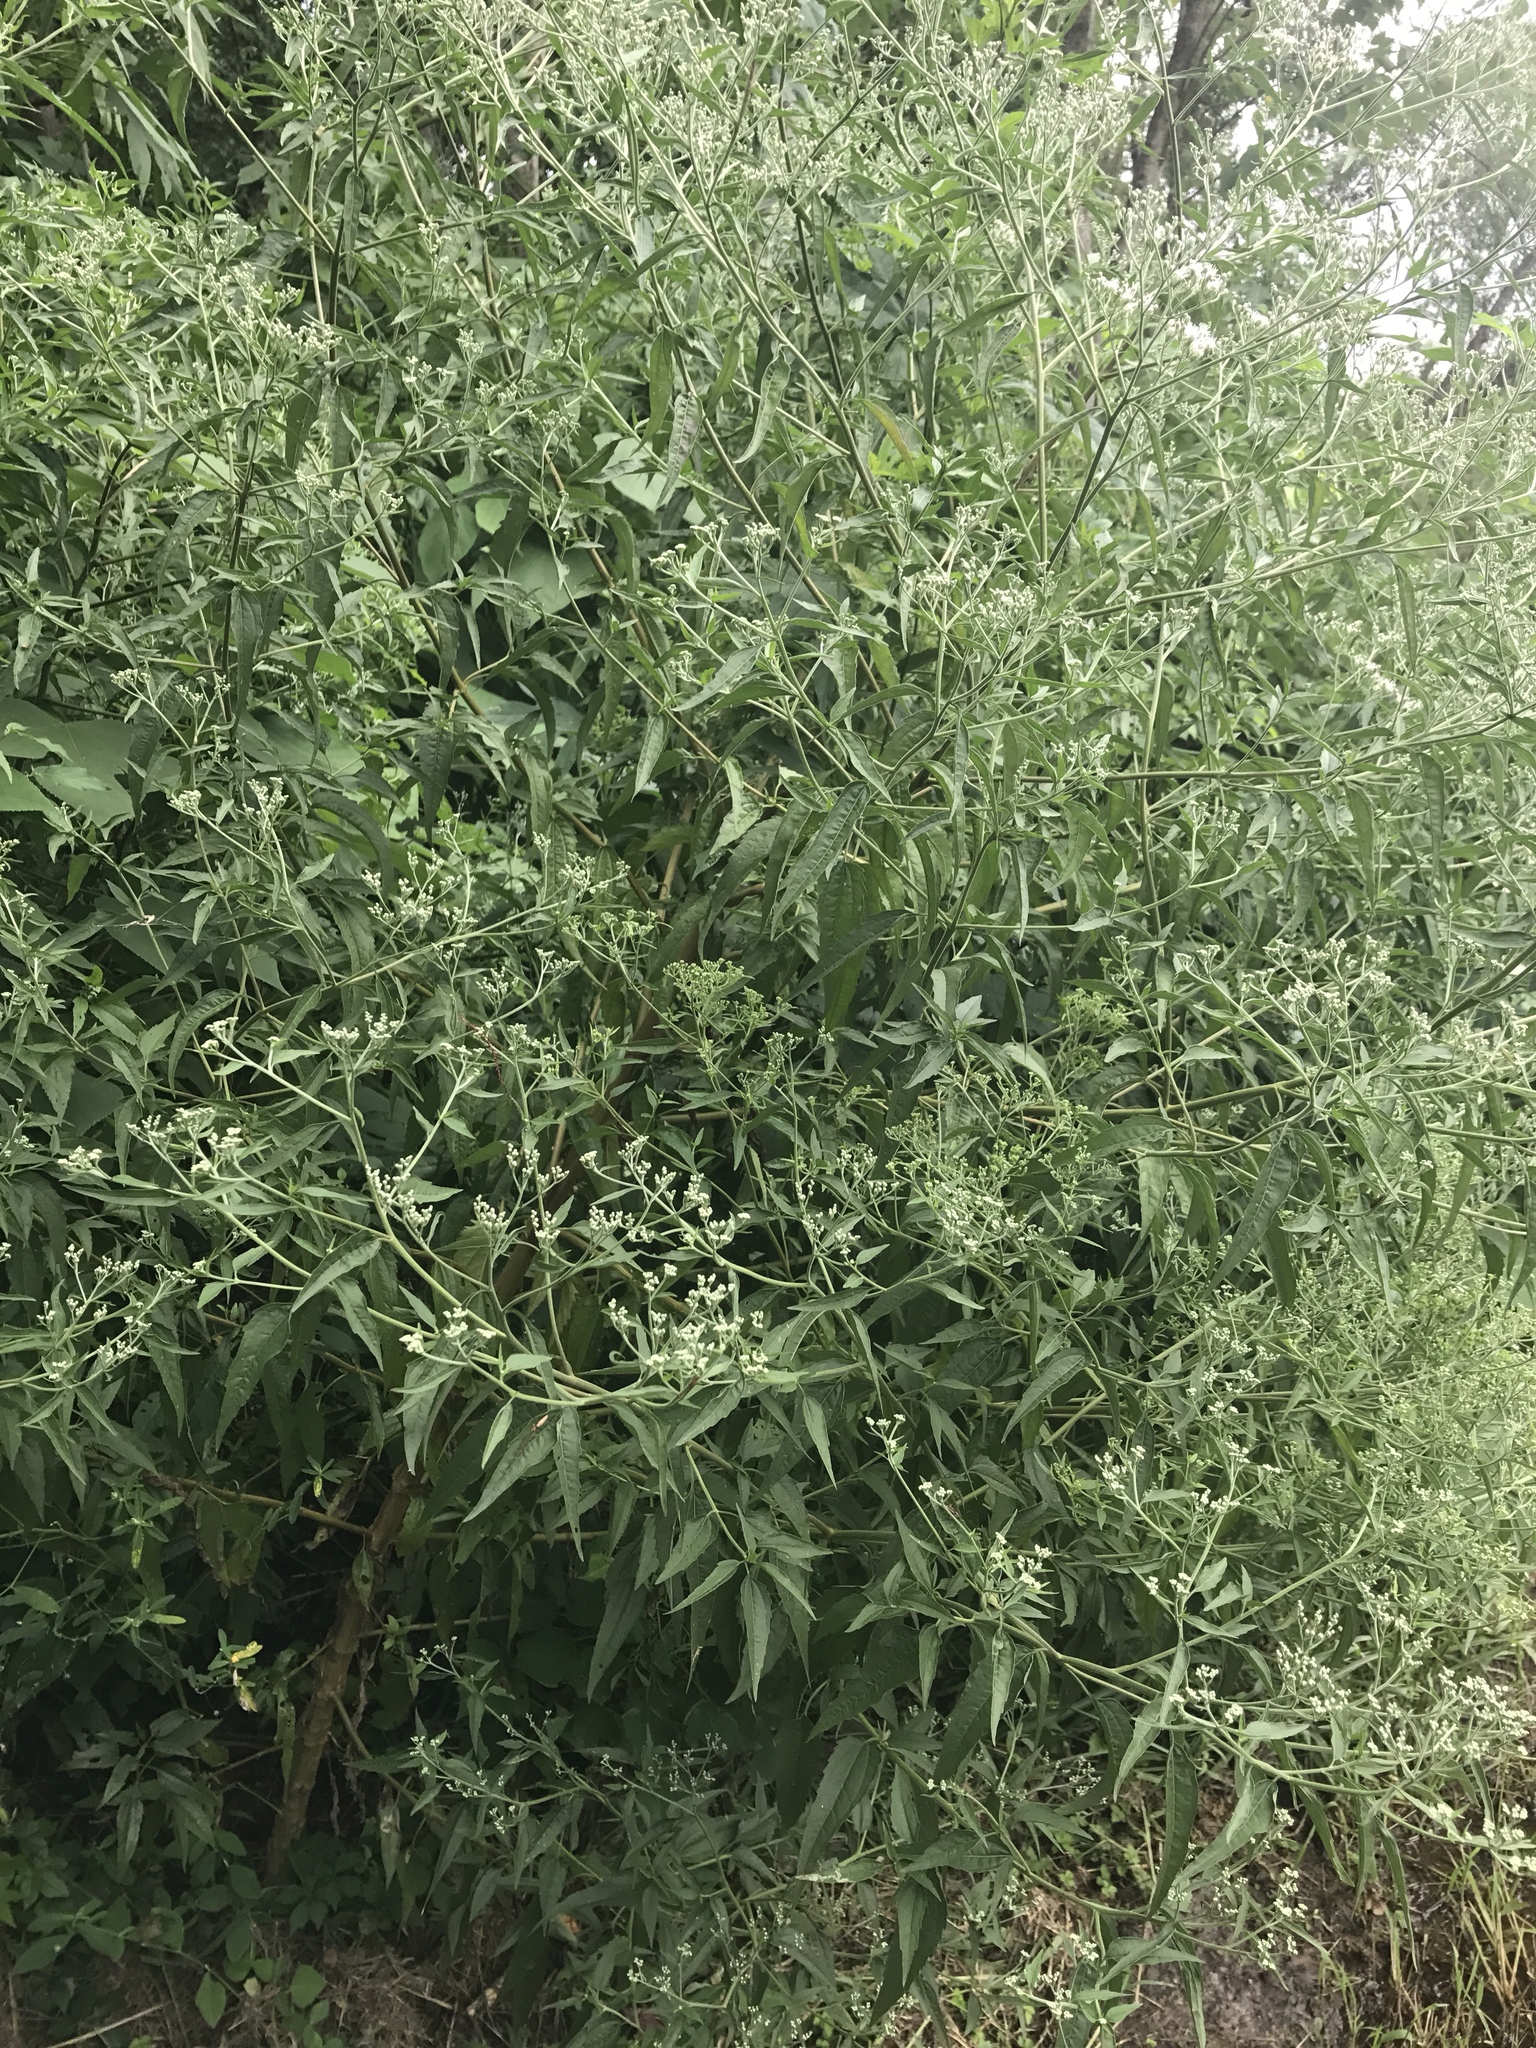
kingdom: Plantae
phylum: Tracheophyta
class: Magnoliopsida
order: Asterales
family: Asteraceae
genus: Eupatorium
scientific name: Eupatorium serotinum
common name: Late boneset
